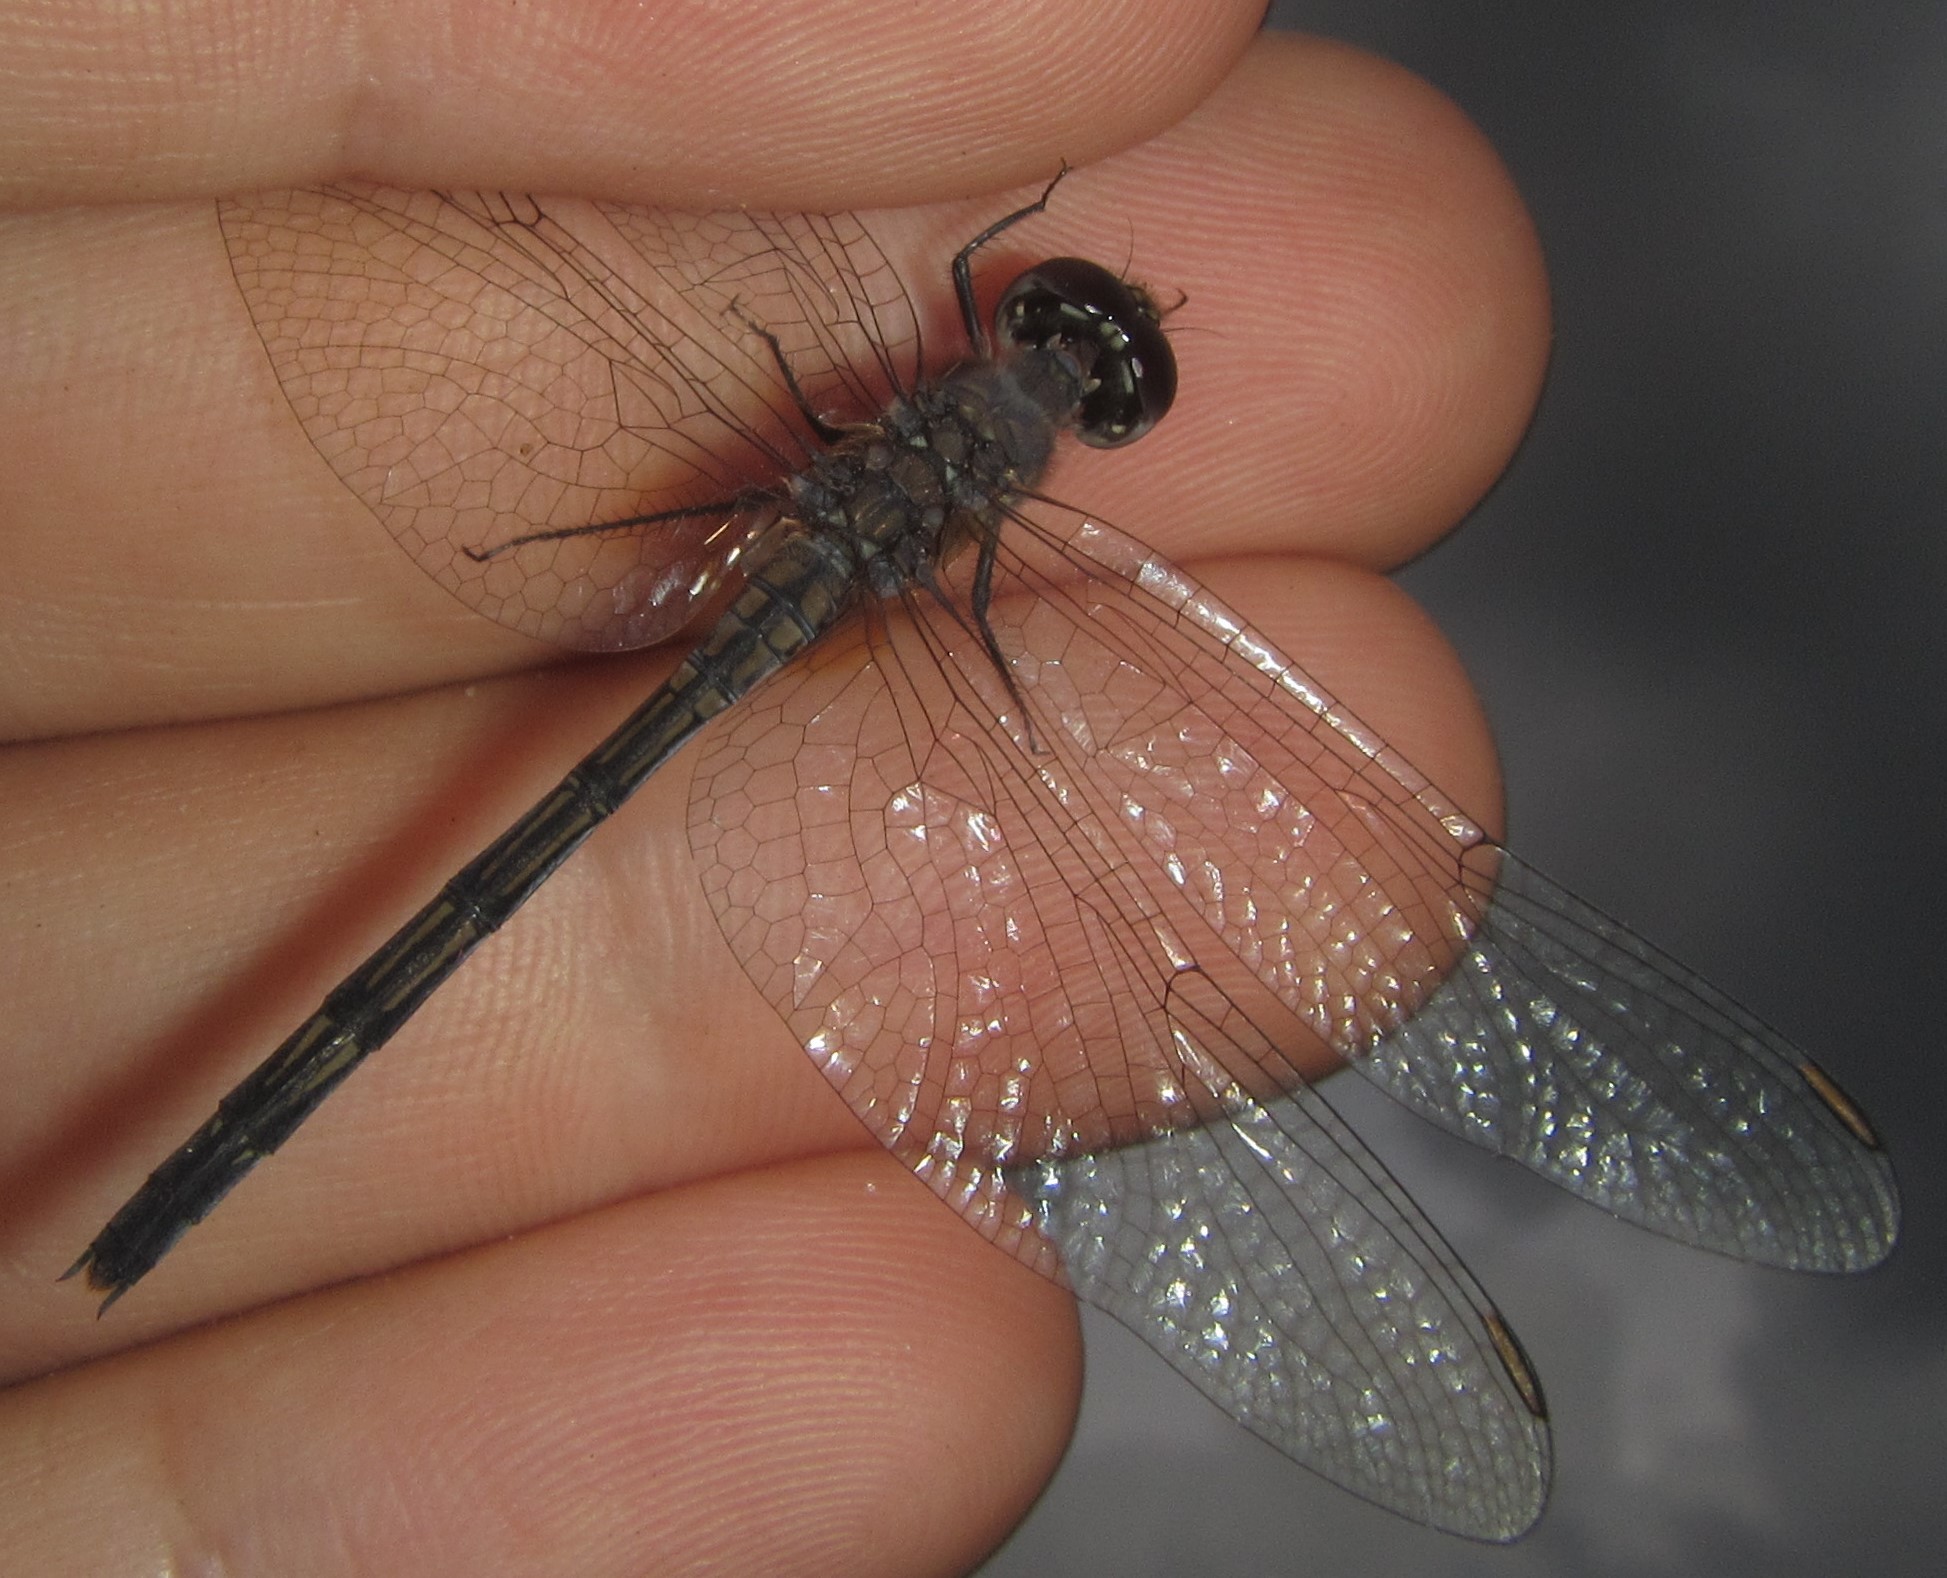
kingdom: Animalia
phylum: Arthropoda
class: Insecta
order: Odonata
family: Libellulidae
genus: Trithemis
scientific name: Trithemis hecate
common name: Silhouette dropwing
